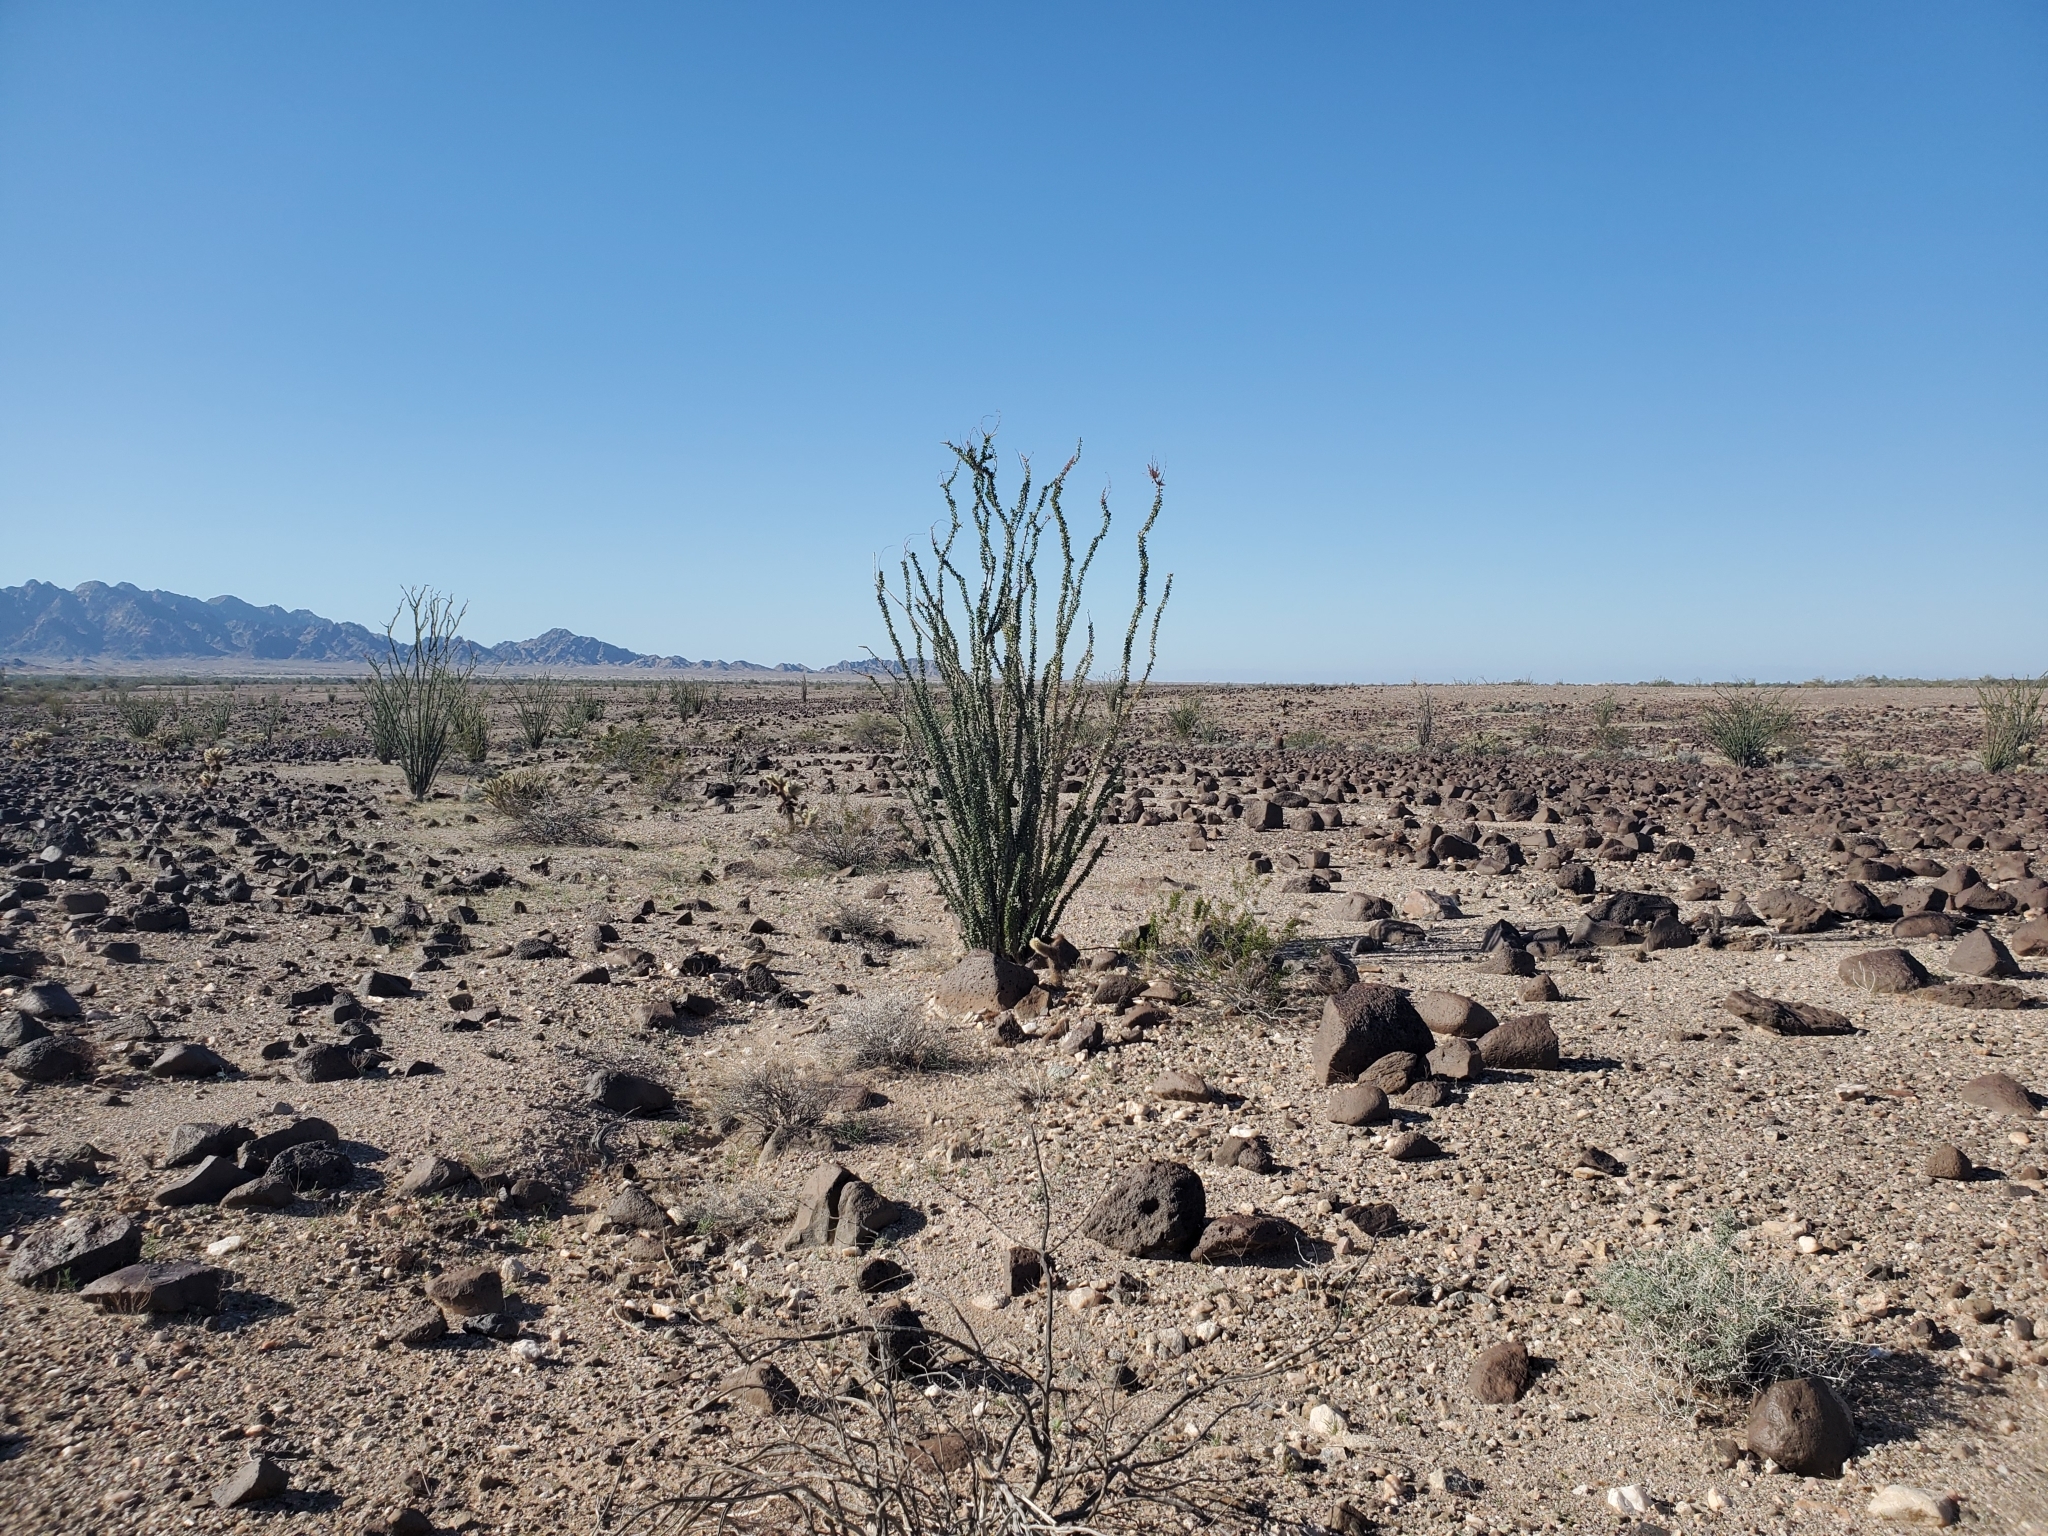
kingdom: Plantae
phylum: Tracheophyta
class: Magnoliopsida
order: Ericales
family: Fouquieriaceae
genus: Fouquieria
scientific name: Fouquieria splendens
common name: Vine-cactus
